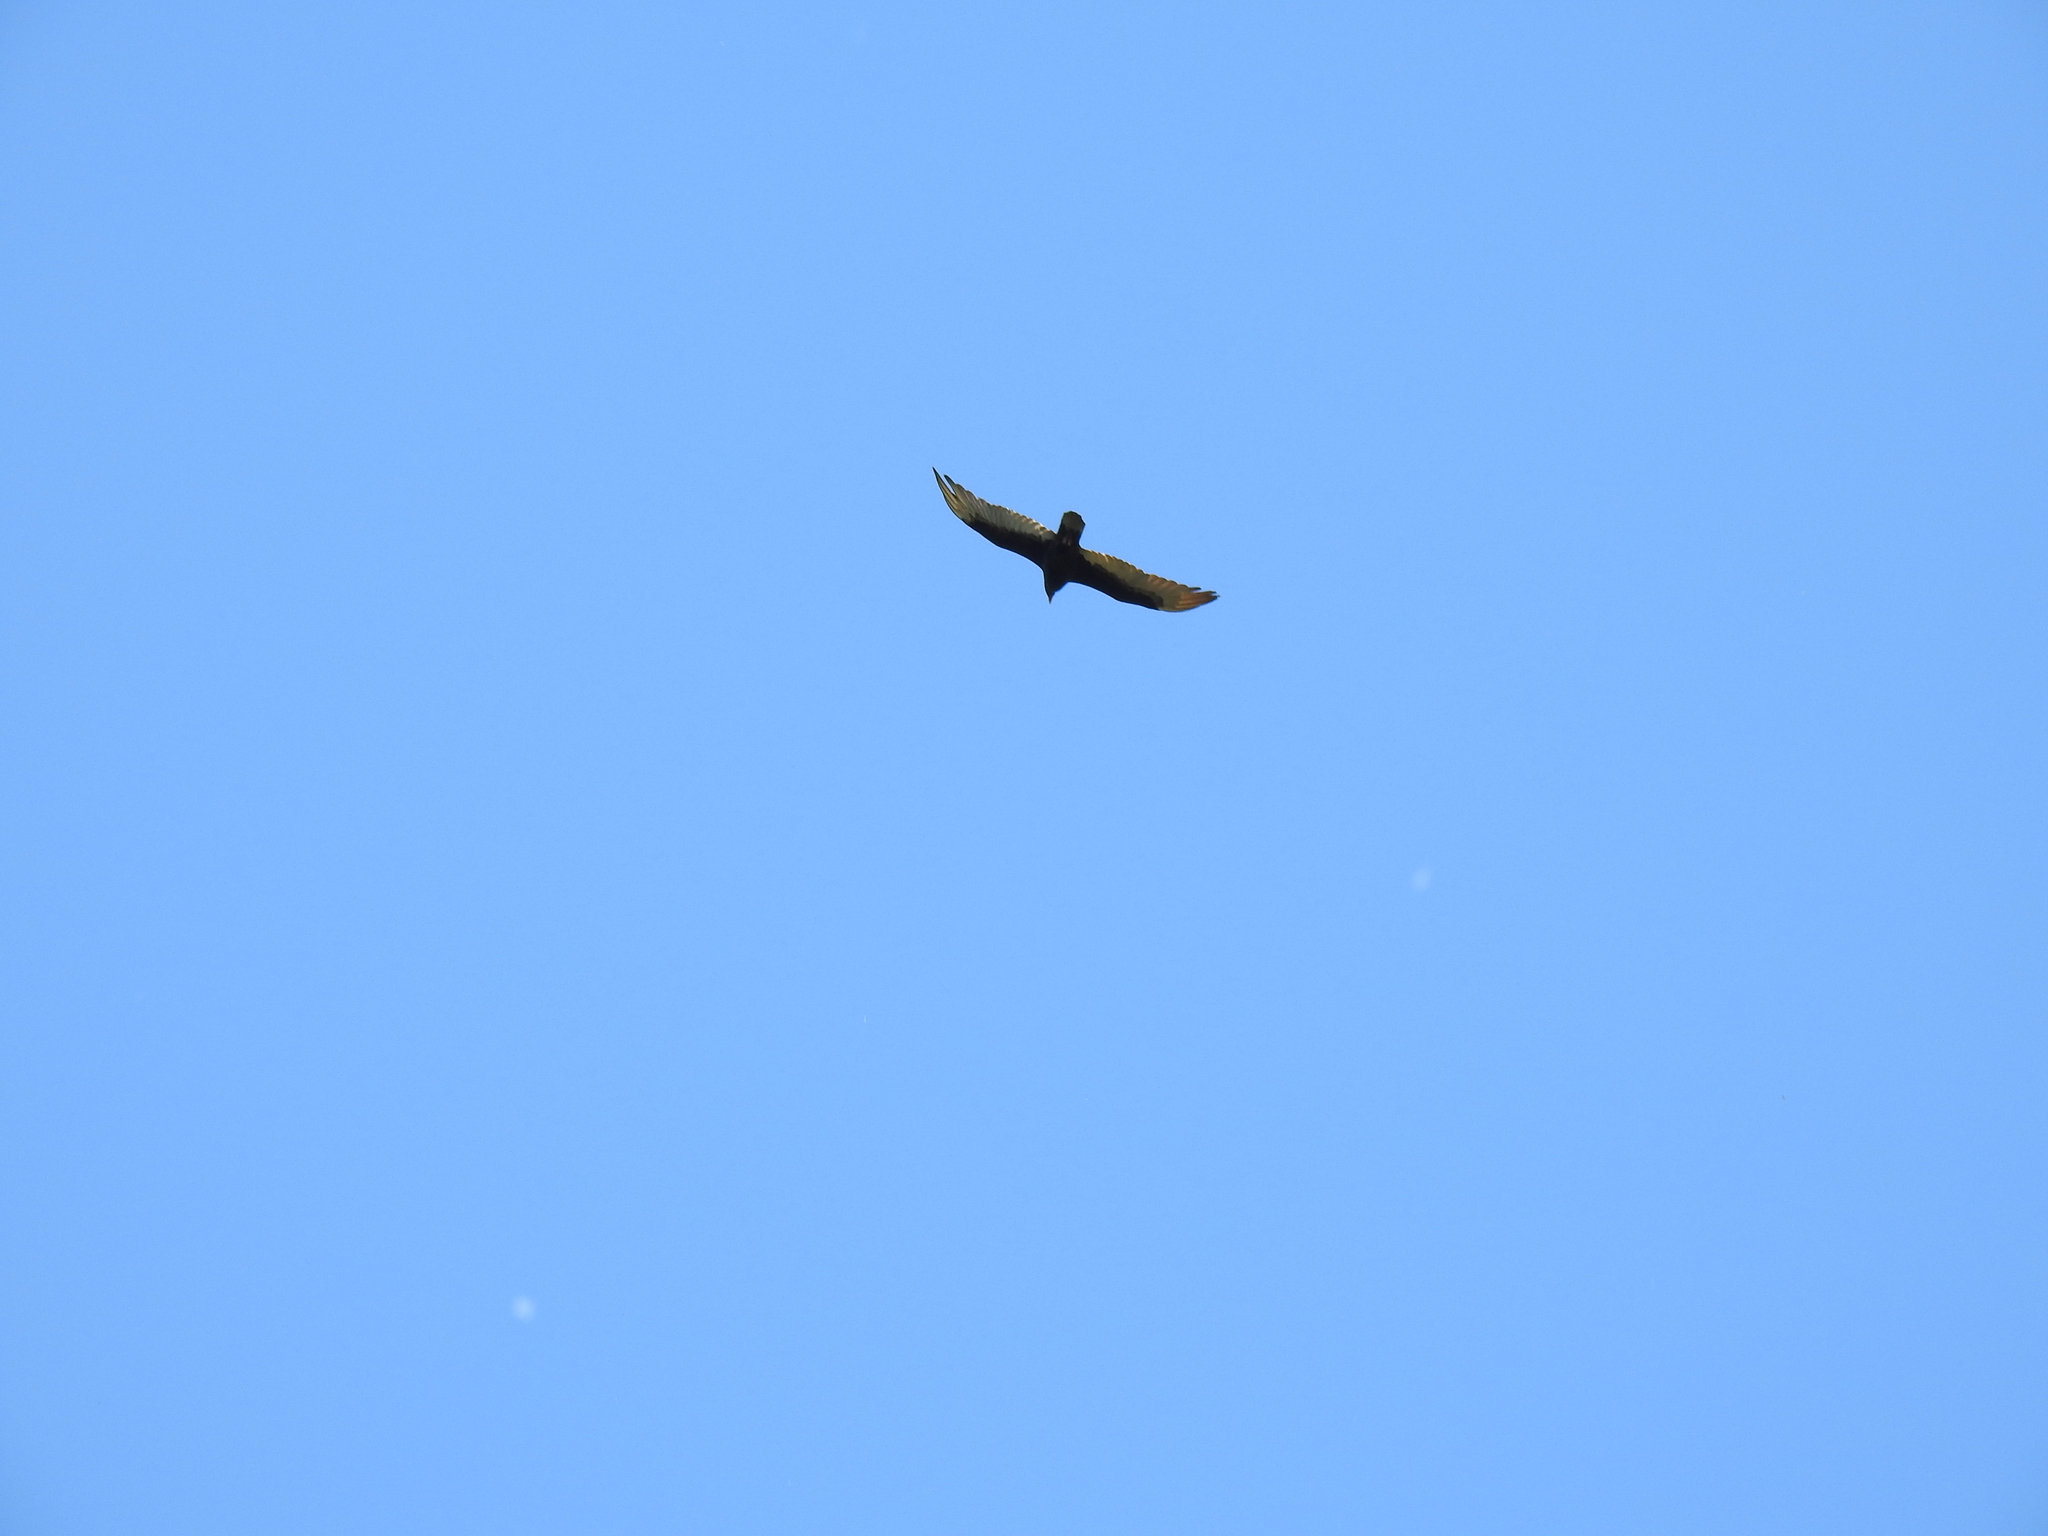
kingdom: Animalia
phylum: Chordata
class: Aves
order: Accipitriformes
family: Cathartidae
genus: Cathartes
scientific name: Cathartes aura
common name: Turkey vulture
